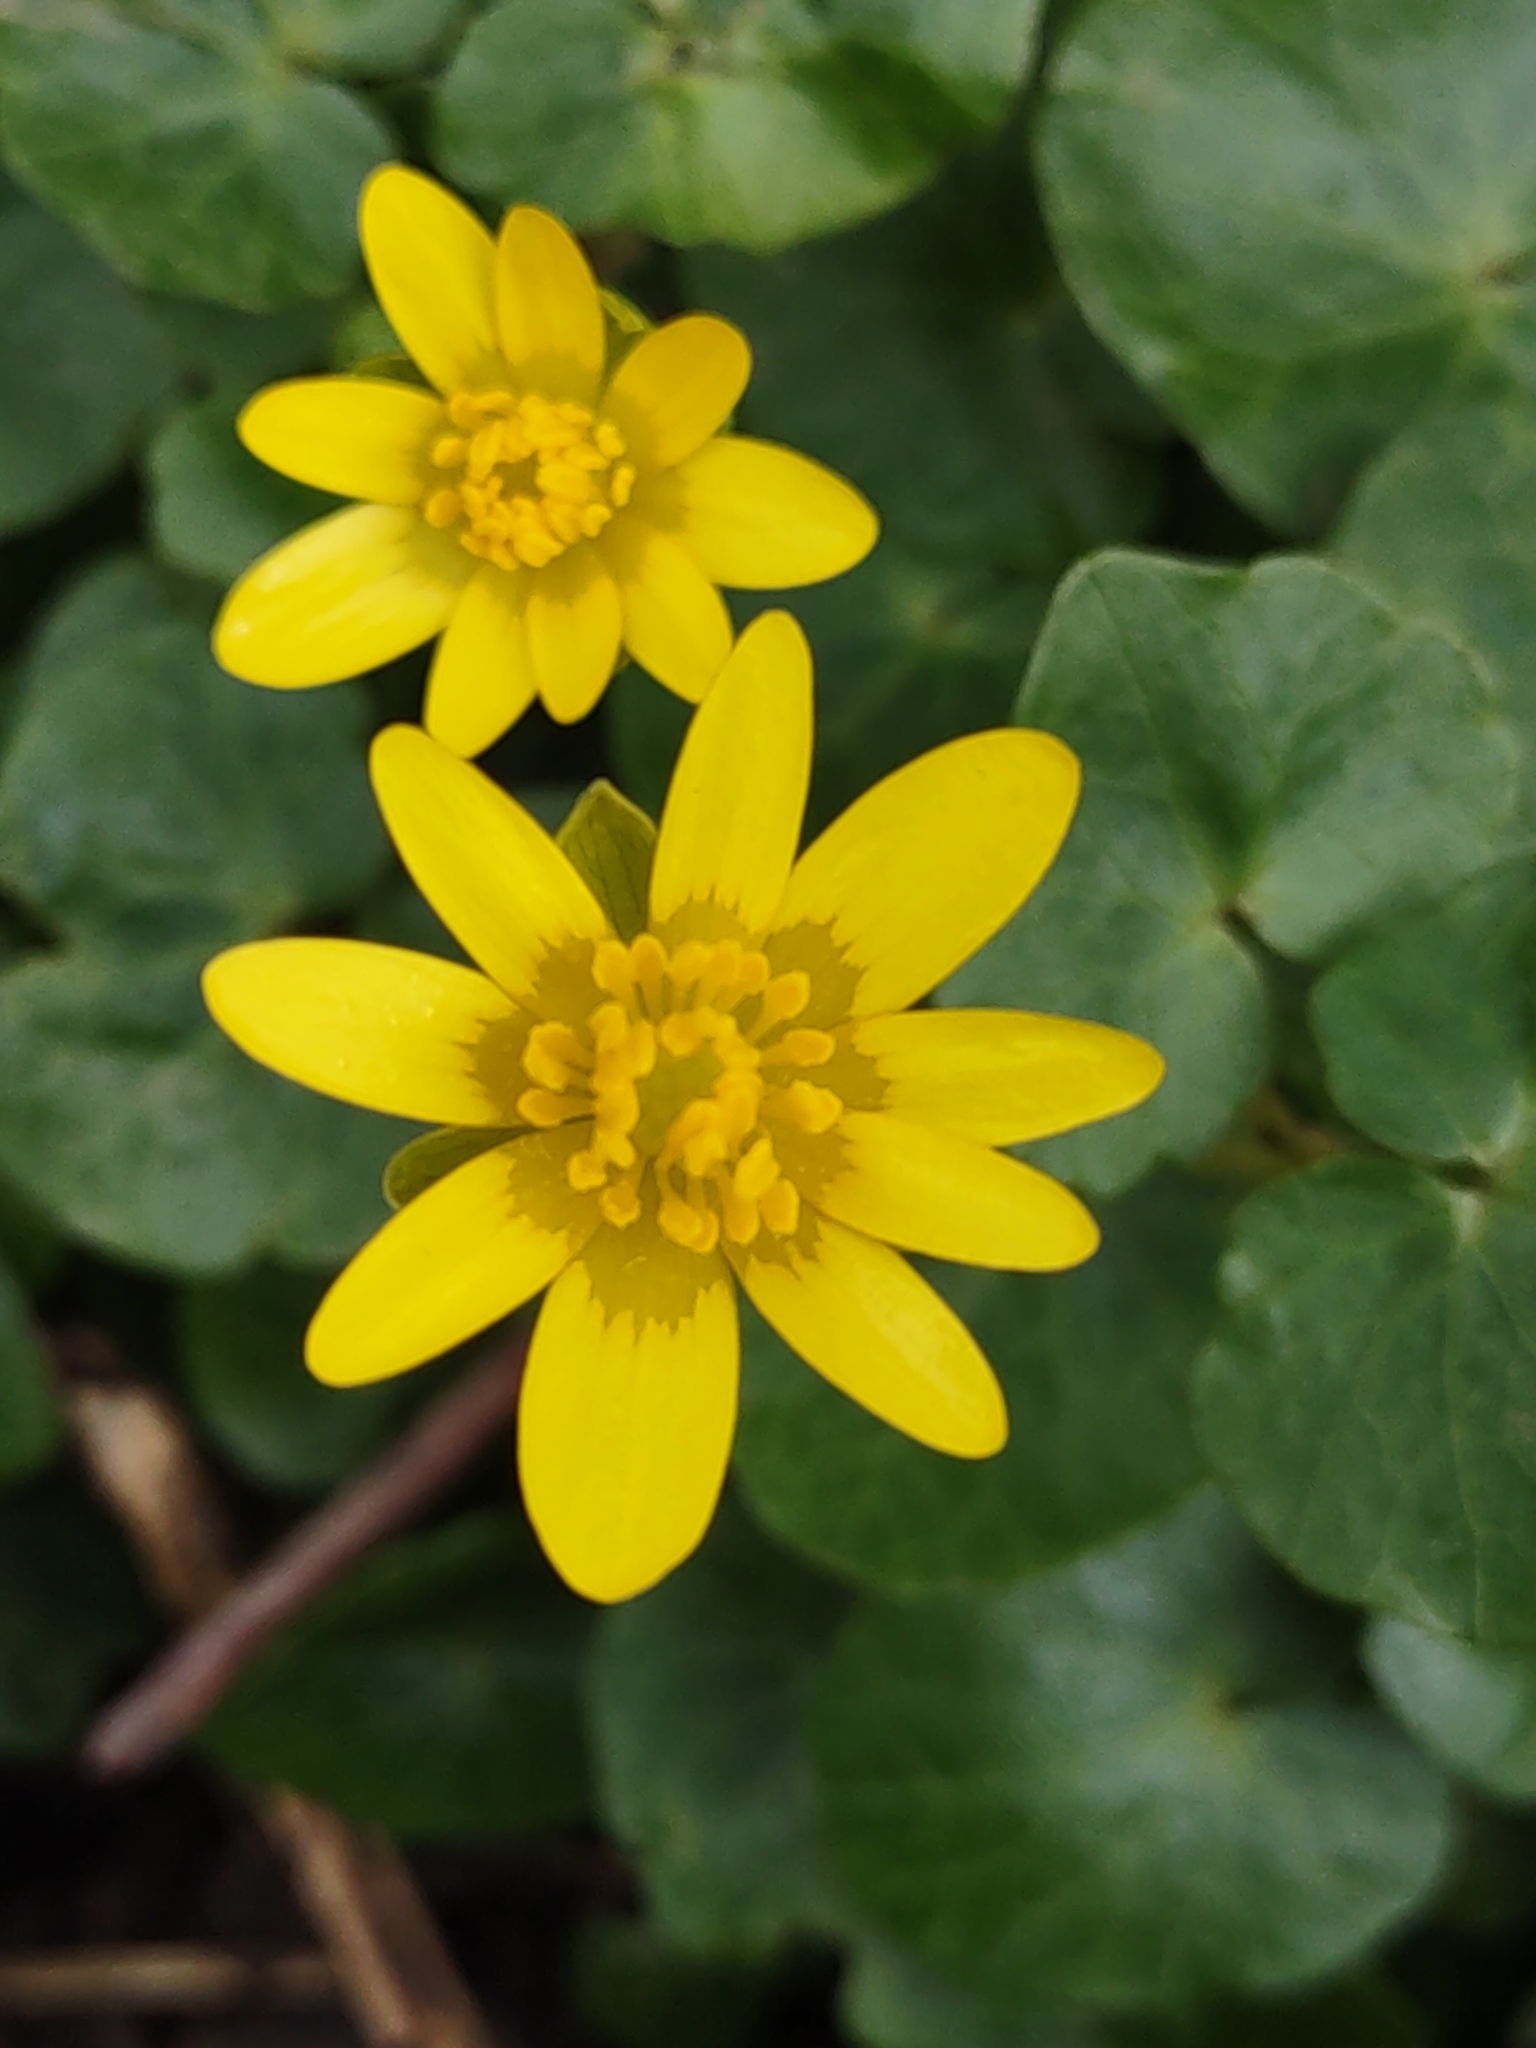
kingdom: Plantae
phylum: Tracheophyta
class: Magnoliopsida
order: Ranunculales
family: Ranunculaceae
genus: Ficaria
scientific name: Ficaria verna
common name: Lesser celandine
